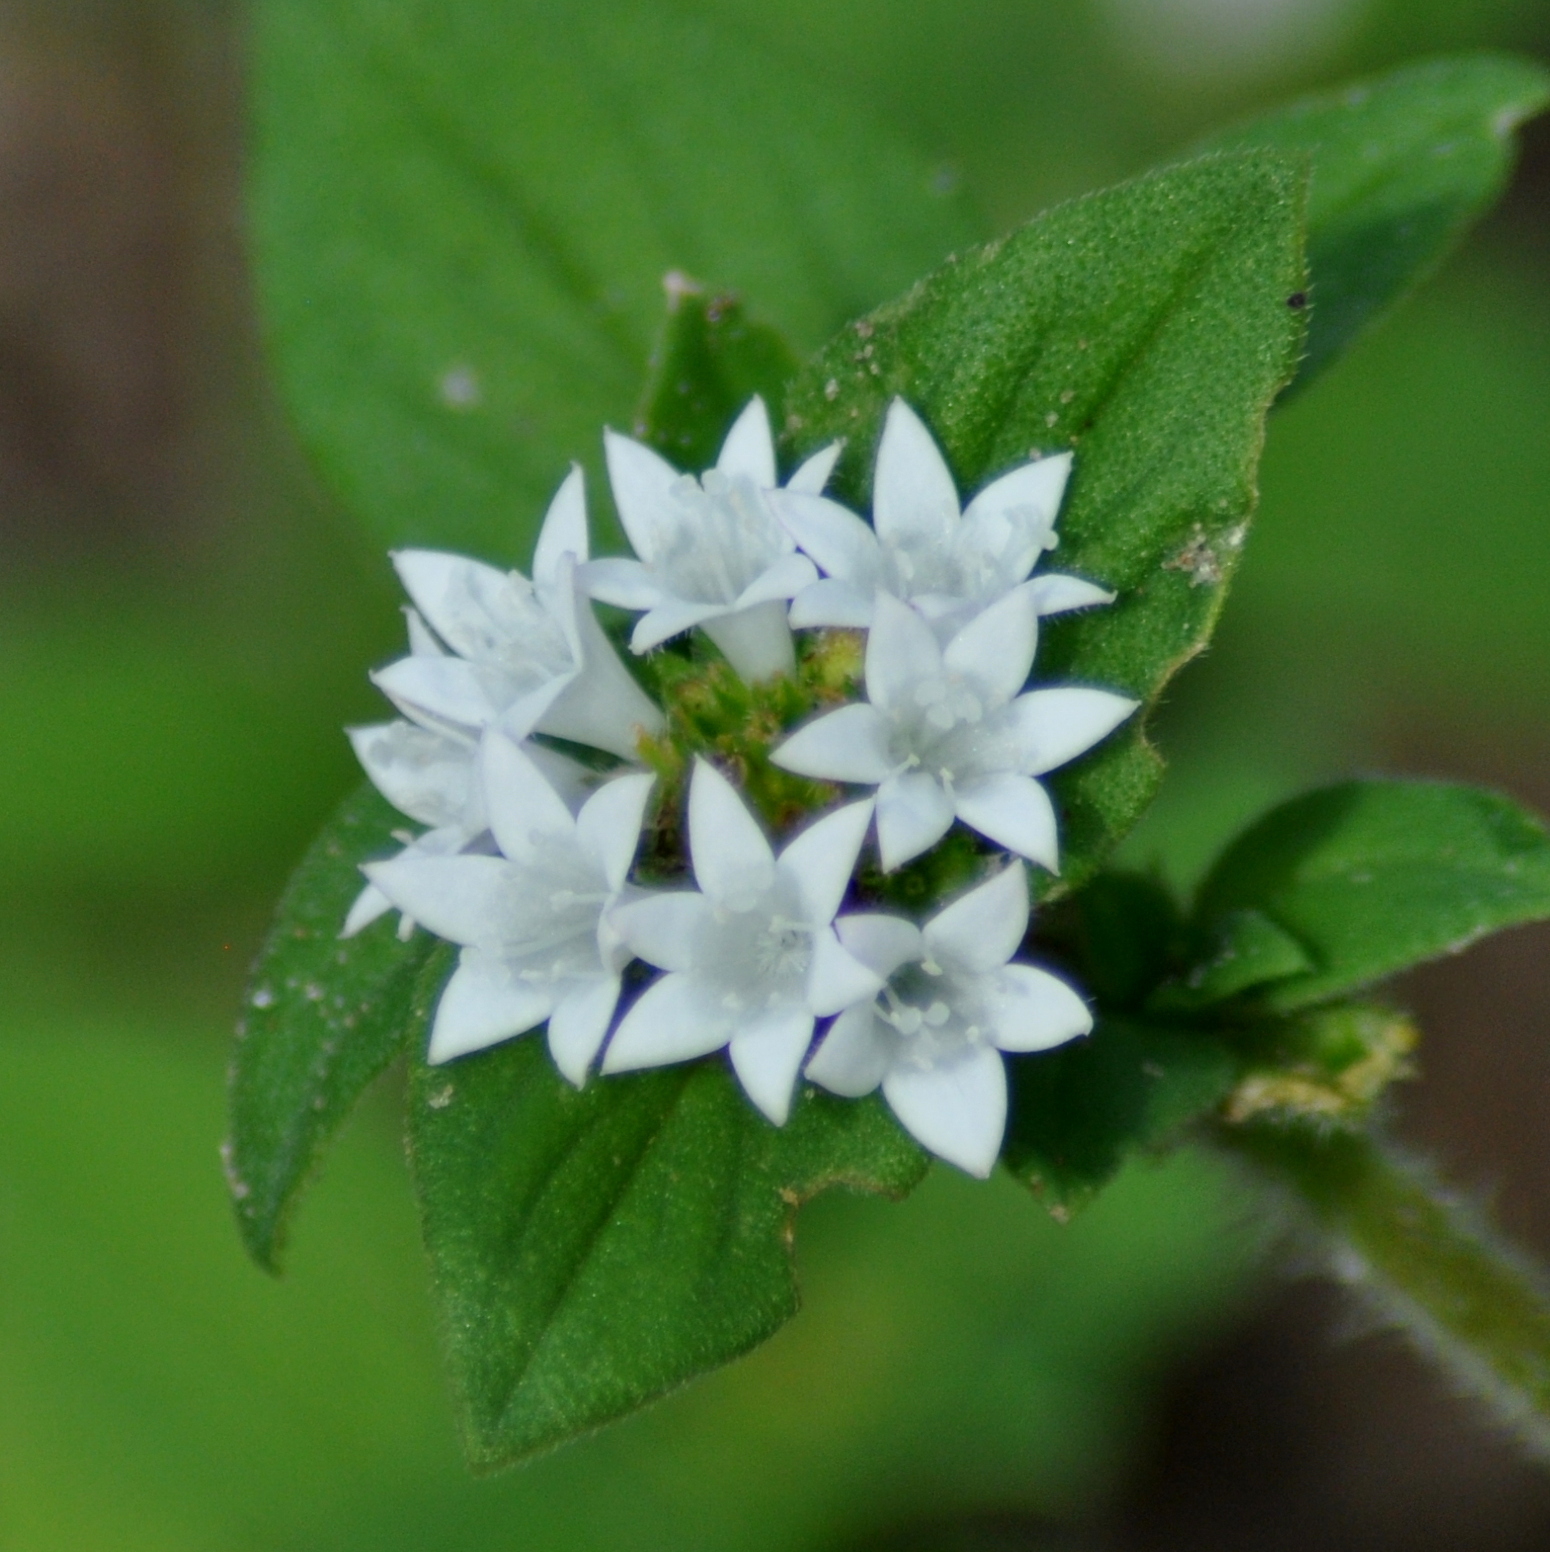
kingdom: Plantae
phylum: Tracheophyta
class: Magnoliopsida
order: Gentianales
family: Rubiaceae
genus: Richardia
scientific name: Richardia brasiliensis
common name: Tropical mexican clover
